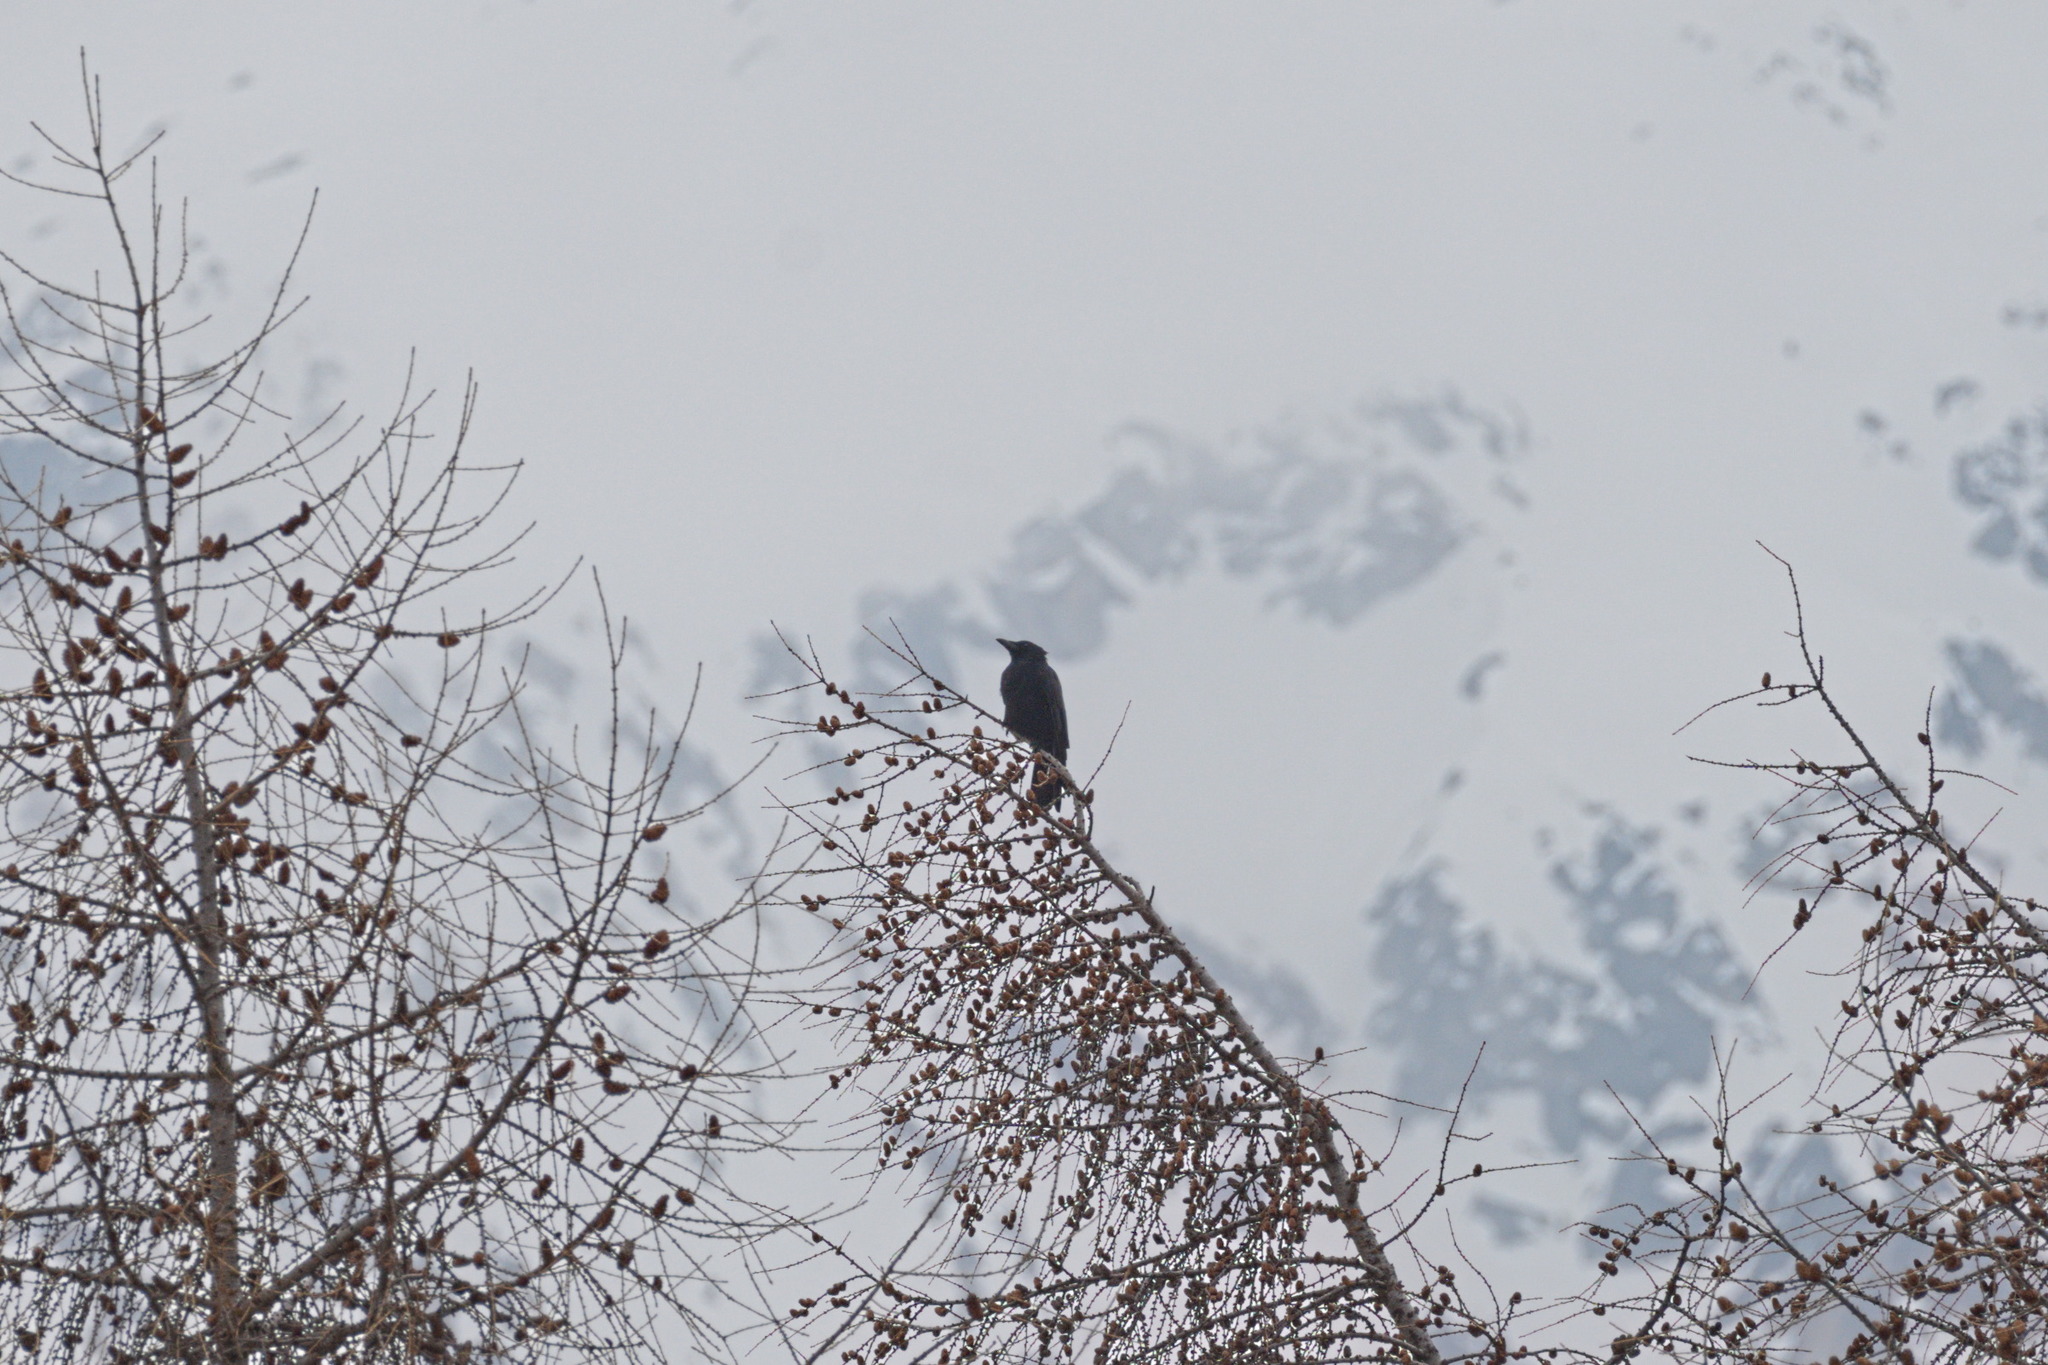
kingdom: Animalia
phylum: Chordata
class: Aves
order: Passeriformes
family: Corvidae
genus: Corvus
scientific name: Corvus corone
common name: Carrion crow
